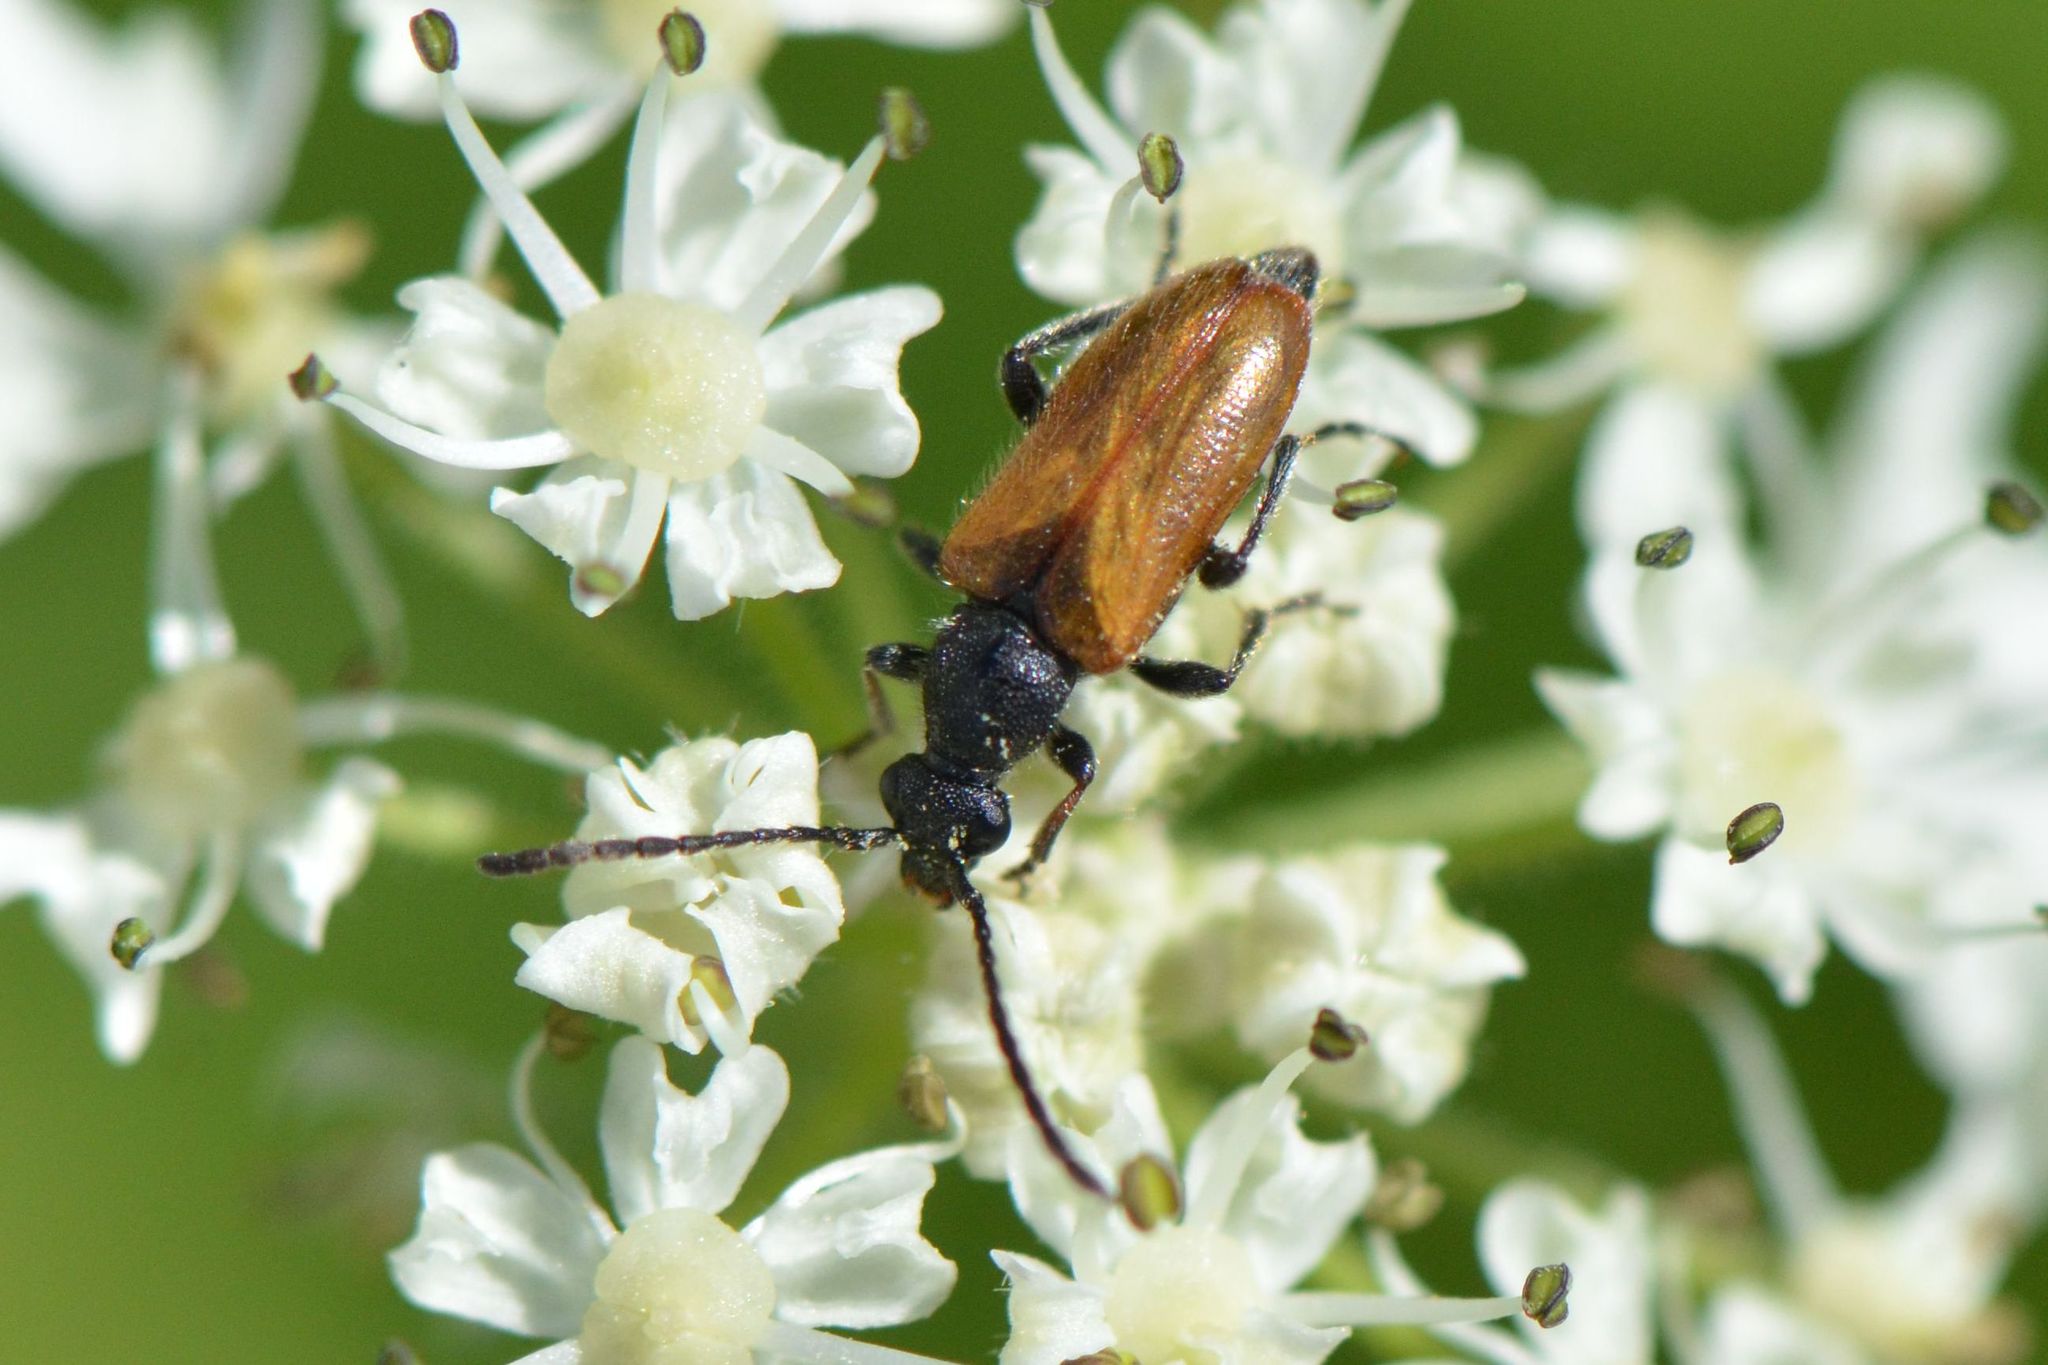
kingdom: Animalia
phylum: Arthropoda
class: Insecta
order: Coleoptera
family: Cerambycidae
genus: Pseudovadonia
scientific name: Pseudovadonia livida
